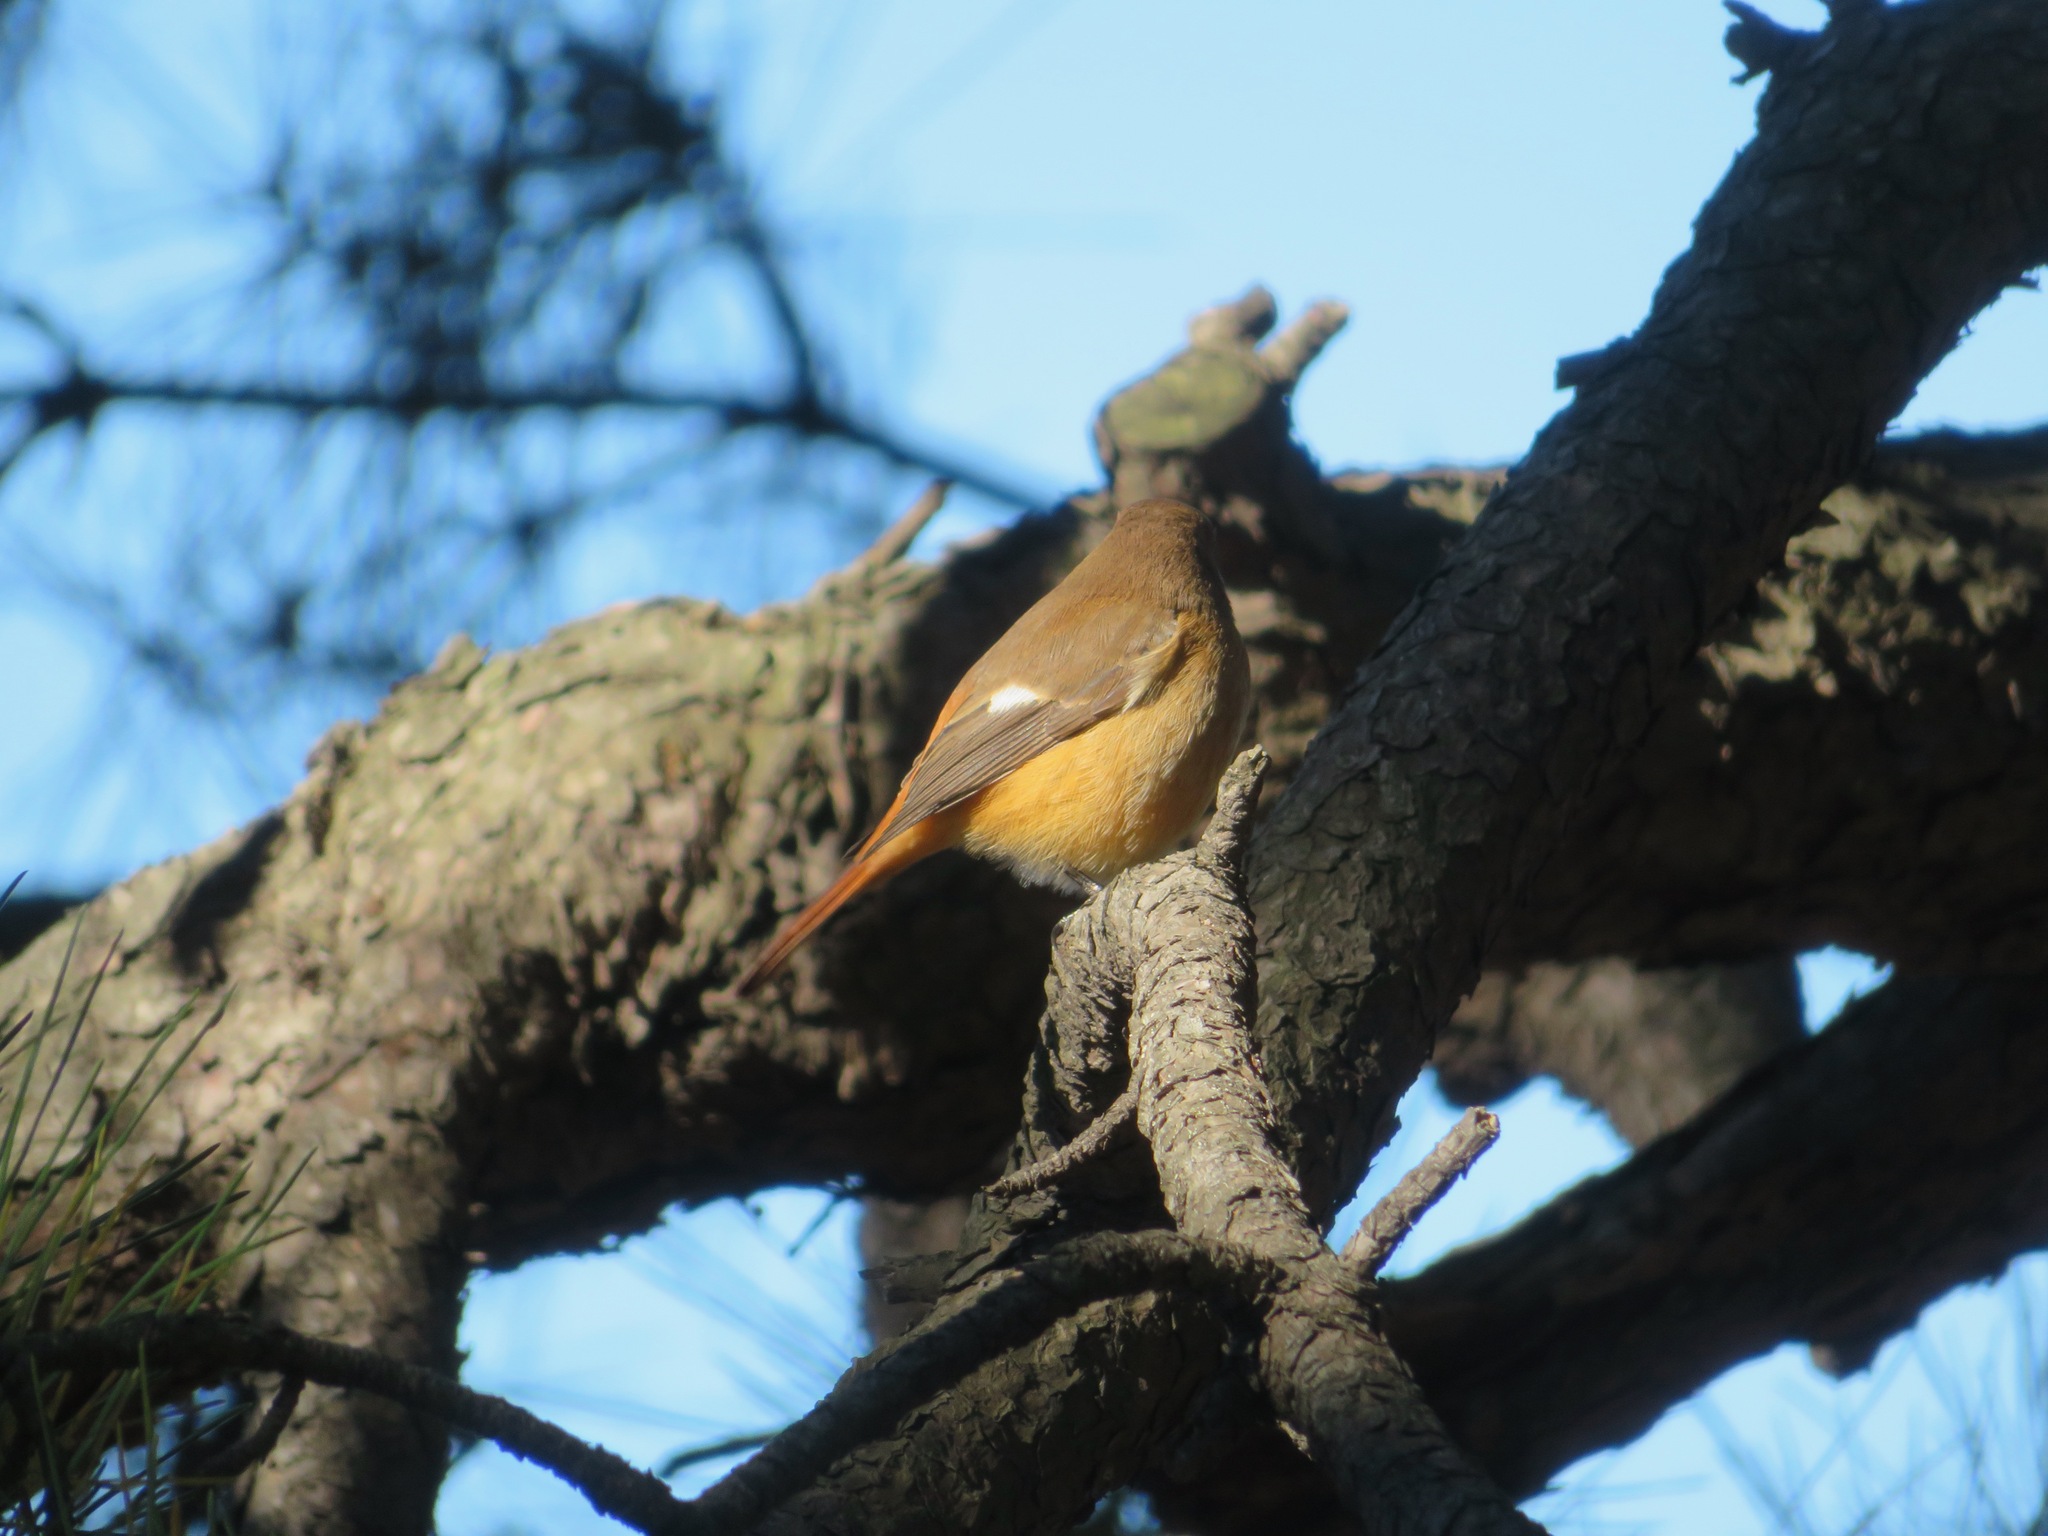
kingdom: Animalia
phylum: Chordata
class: Aves
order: Passeriformes
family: Muscicapidae
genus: Phoenicurus
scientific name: Phoenicurus auroreus
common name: Daurian redstart
